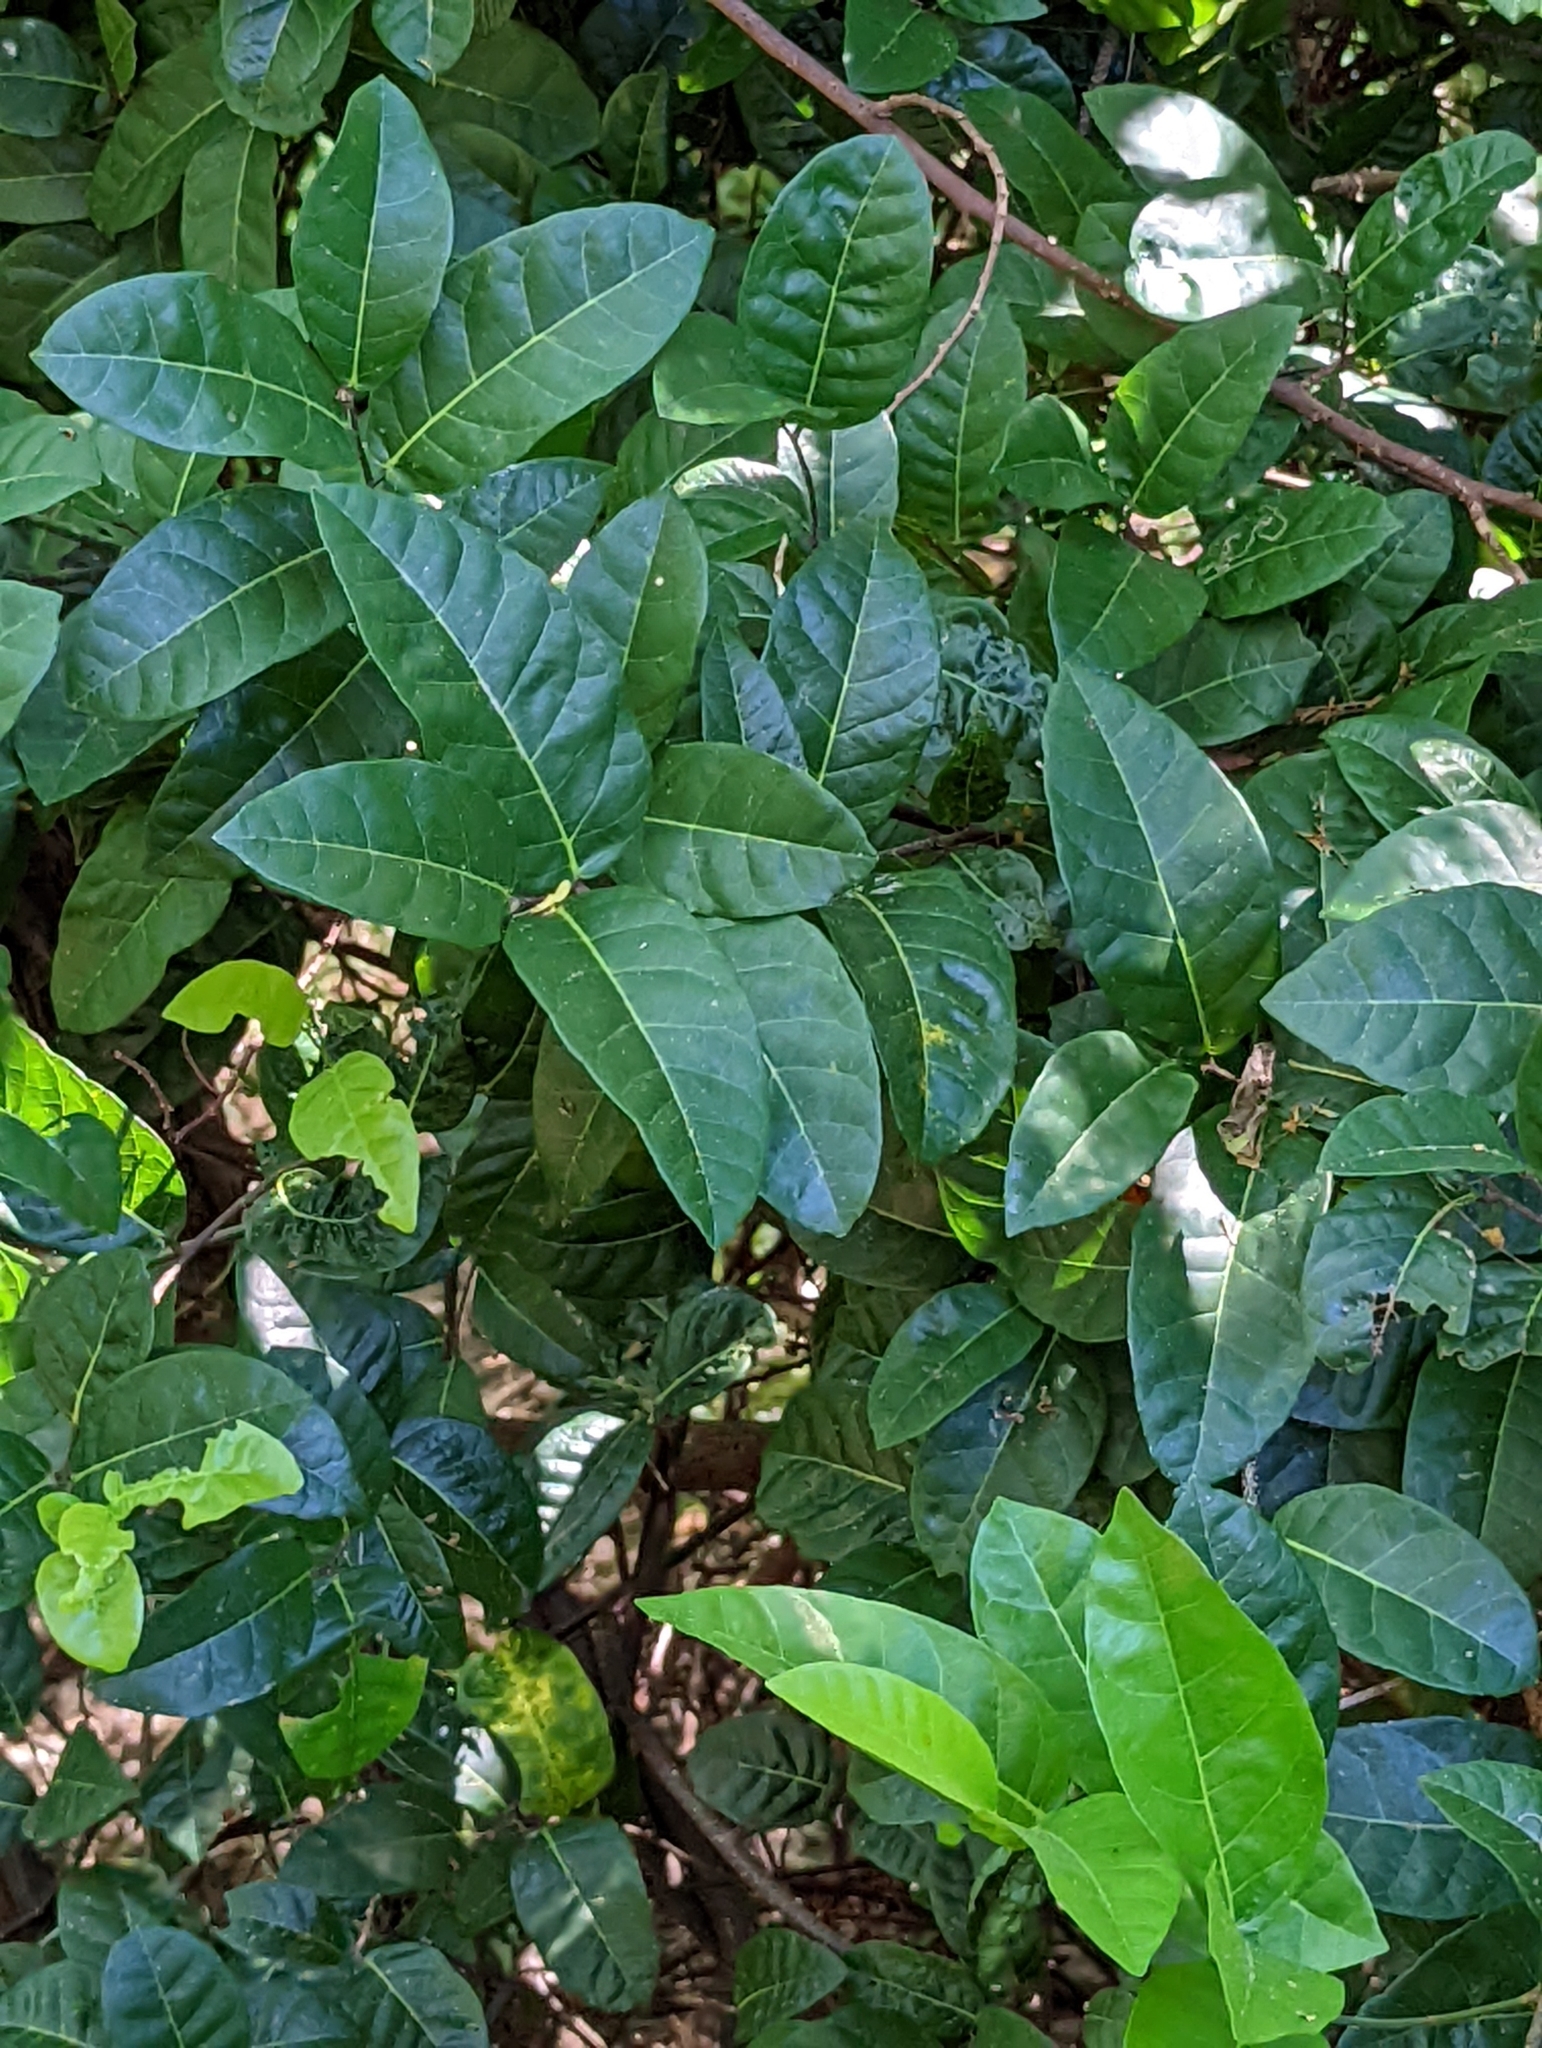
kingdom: Plantae
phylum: Tracheophyta
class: Magnoliopsida
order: Rosales
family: Moraceae
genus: Malaisia
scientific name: Malaisia scandens
